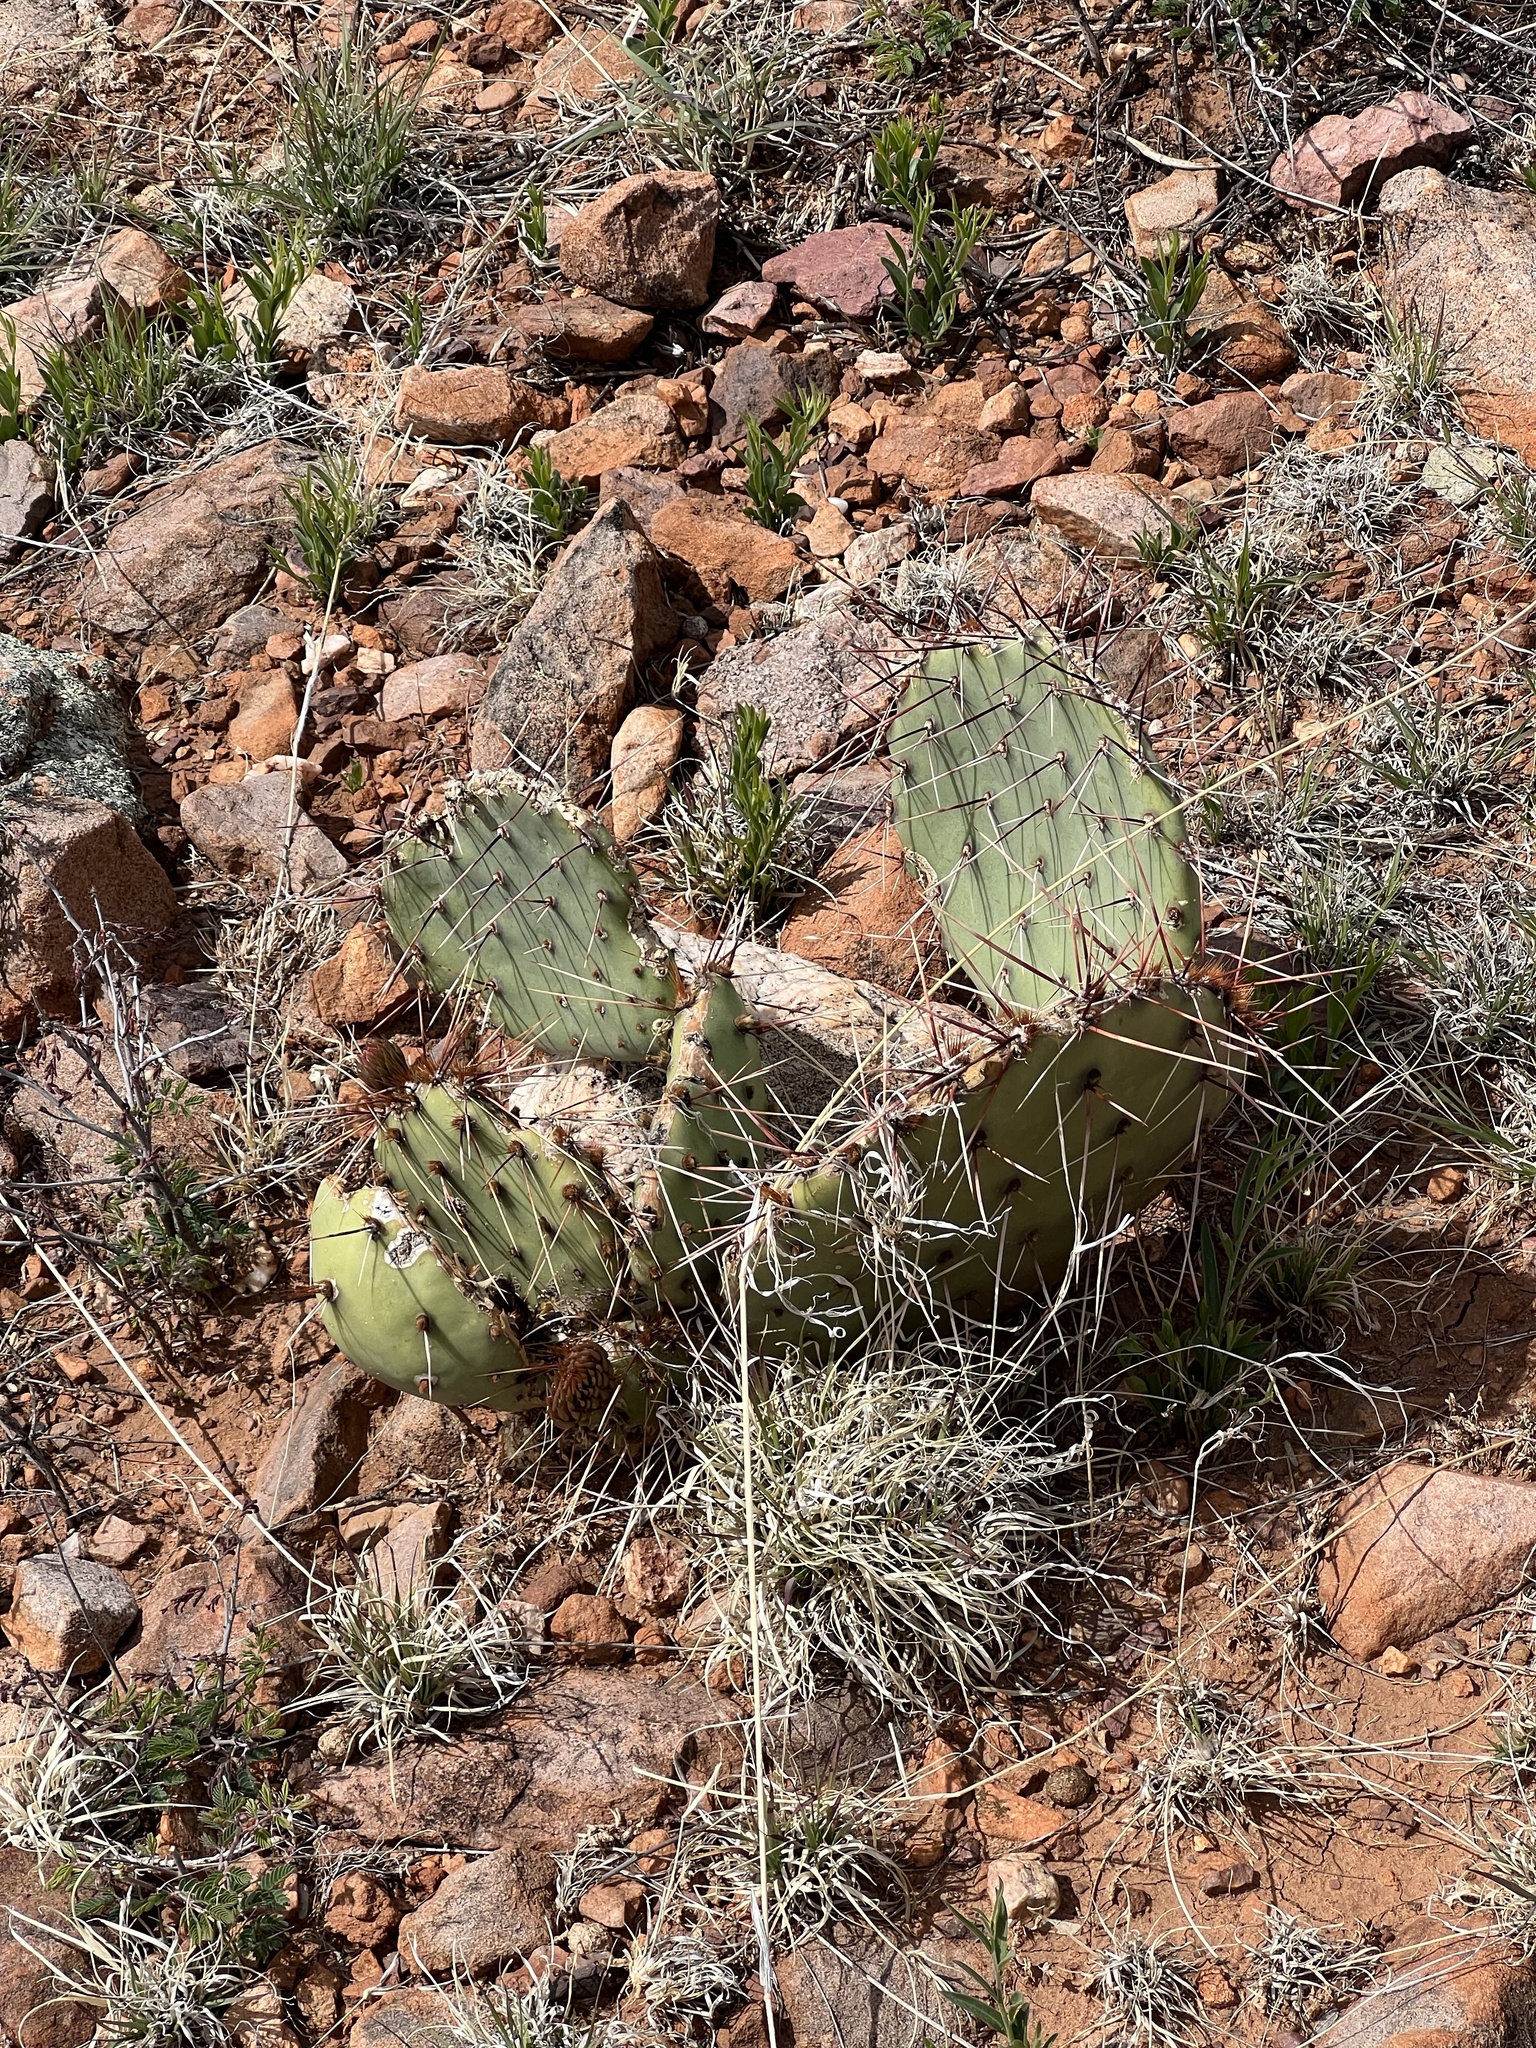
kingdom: Plantae
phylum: Tracheophyta
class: Magnoliopsida
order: Caryophyllales
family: Cactaceae
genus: Opuntia
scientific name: Opuntia phaeacantha
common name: New mexico prickly-pear
